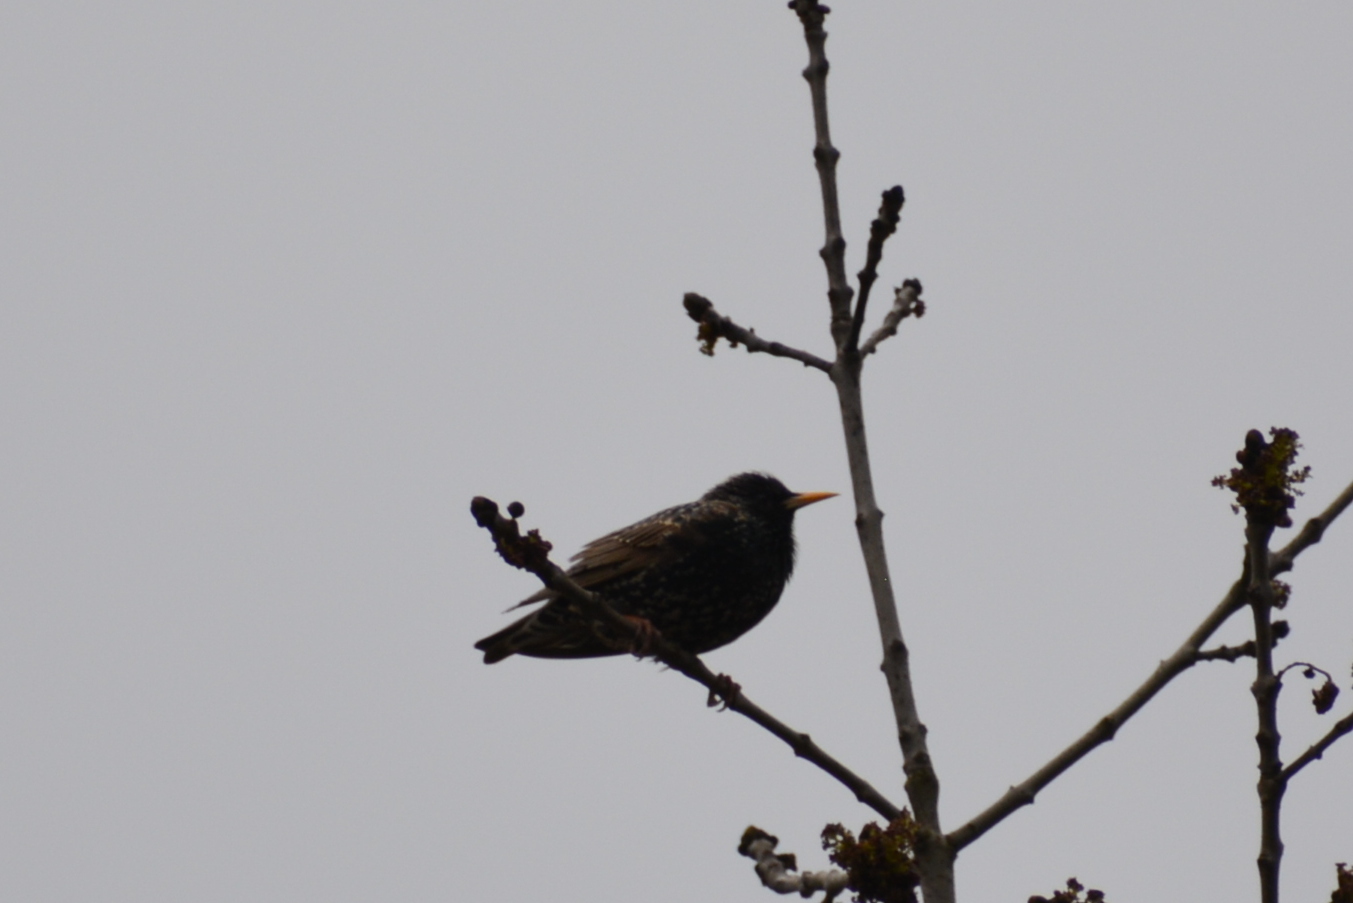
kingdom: Animalia
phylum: Chordata
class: Aves
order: Passeriformes
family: Sturnidae
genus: Sturnus
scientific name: Sturnus vulgaris
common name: Common starling
